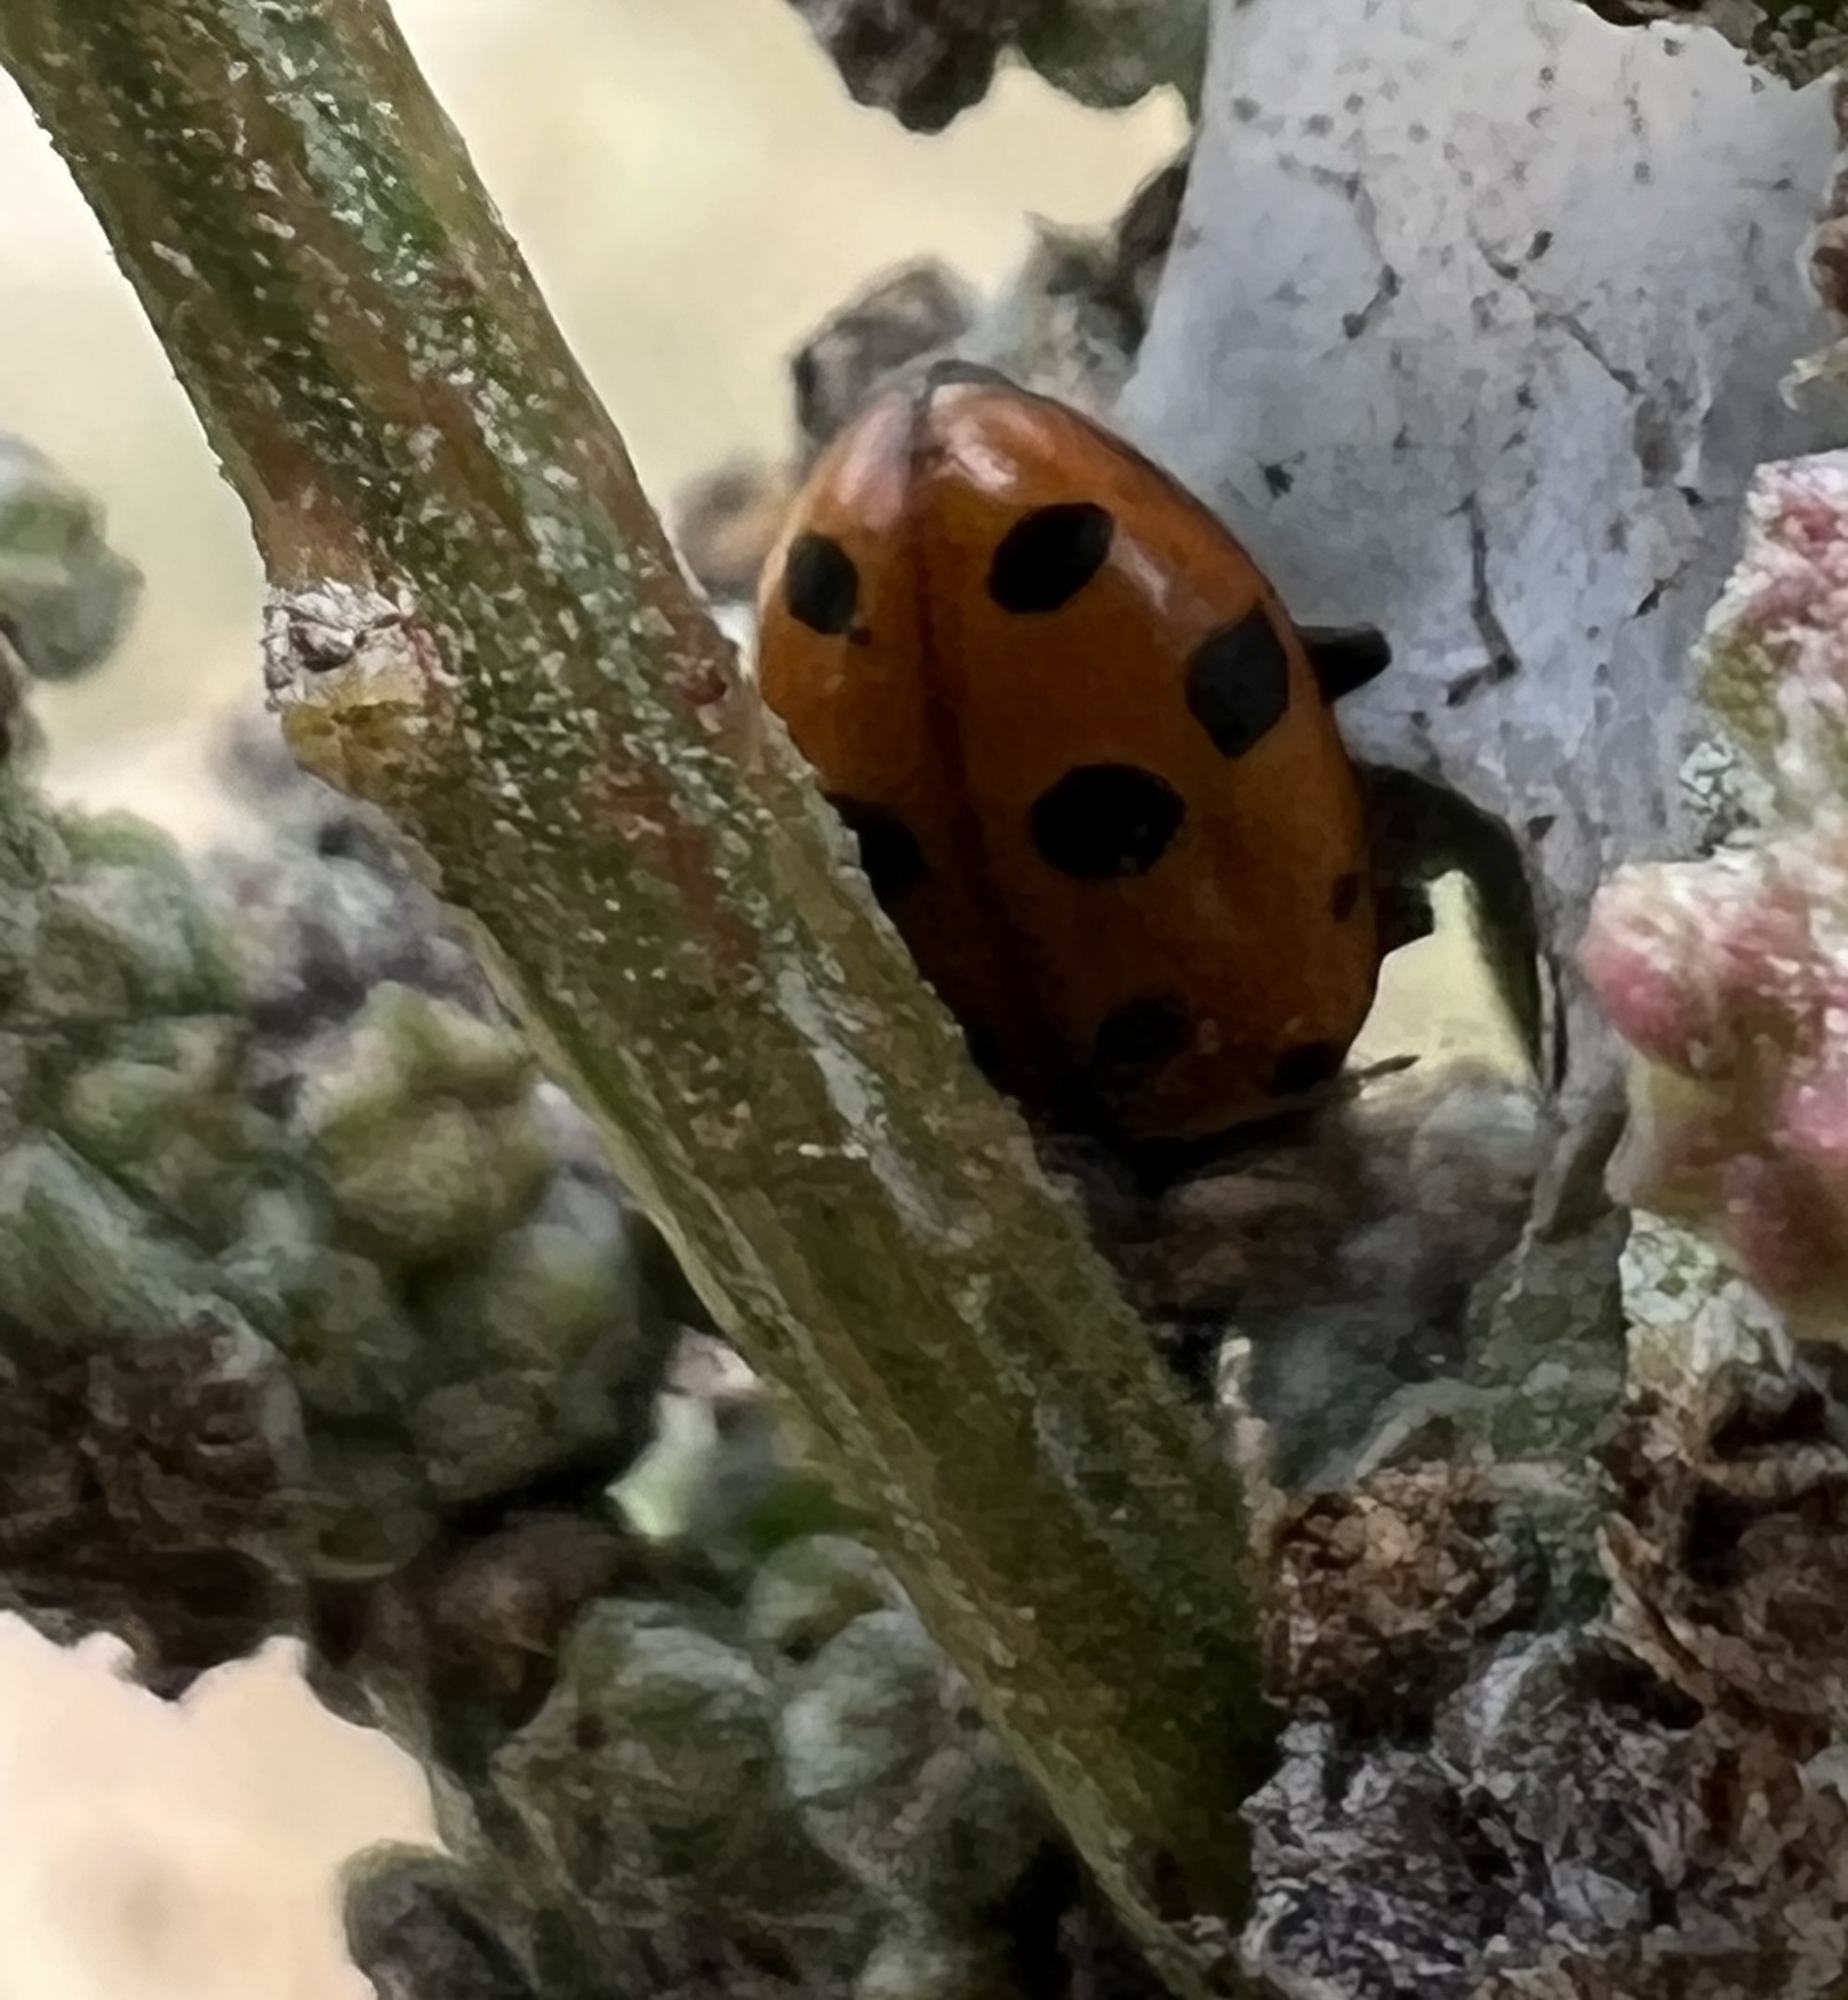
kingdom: Animalia
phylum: Arthropoda
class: Insecta
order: Coleoptera
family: Coccinellidae
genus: Hippodamia
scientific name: Hippodamia convergens
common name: Convergent lady beetle
